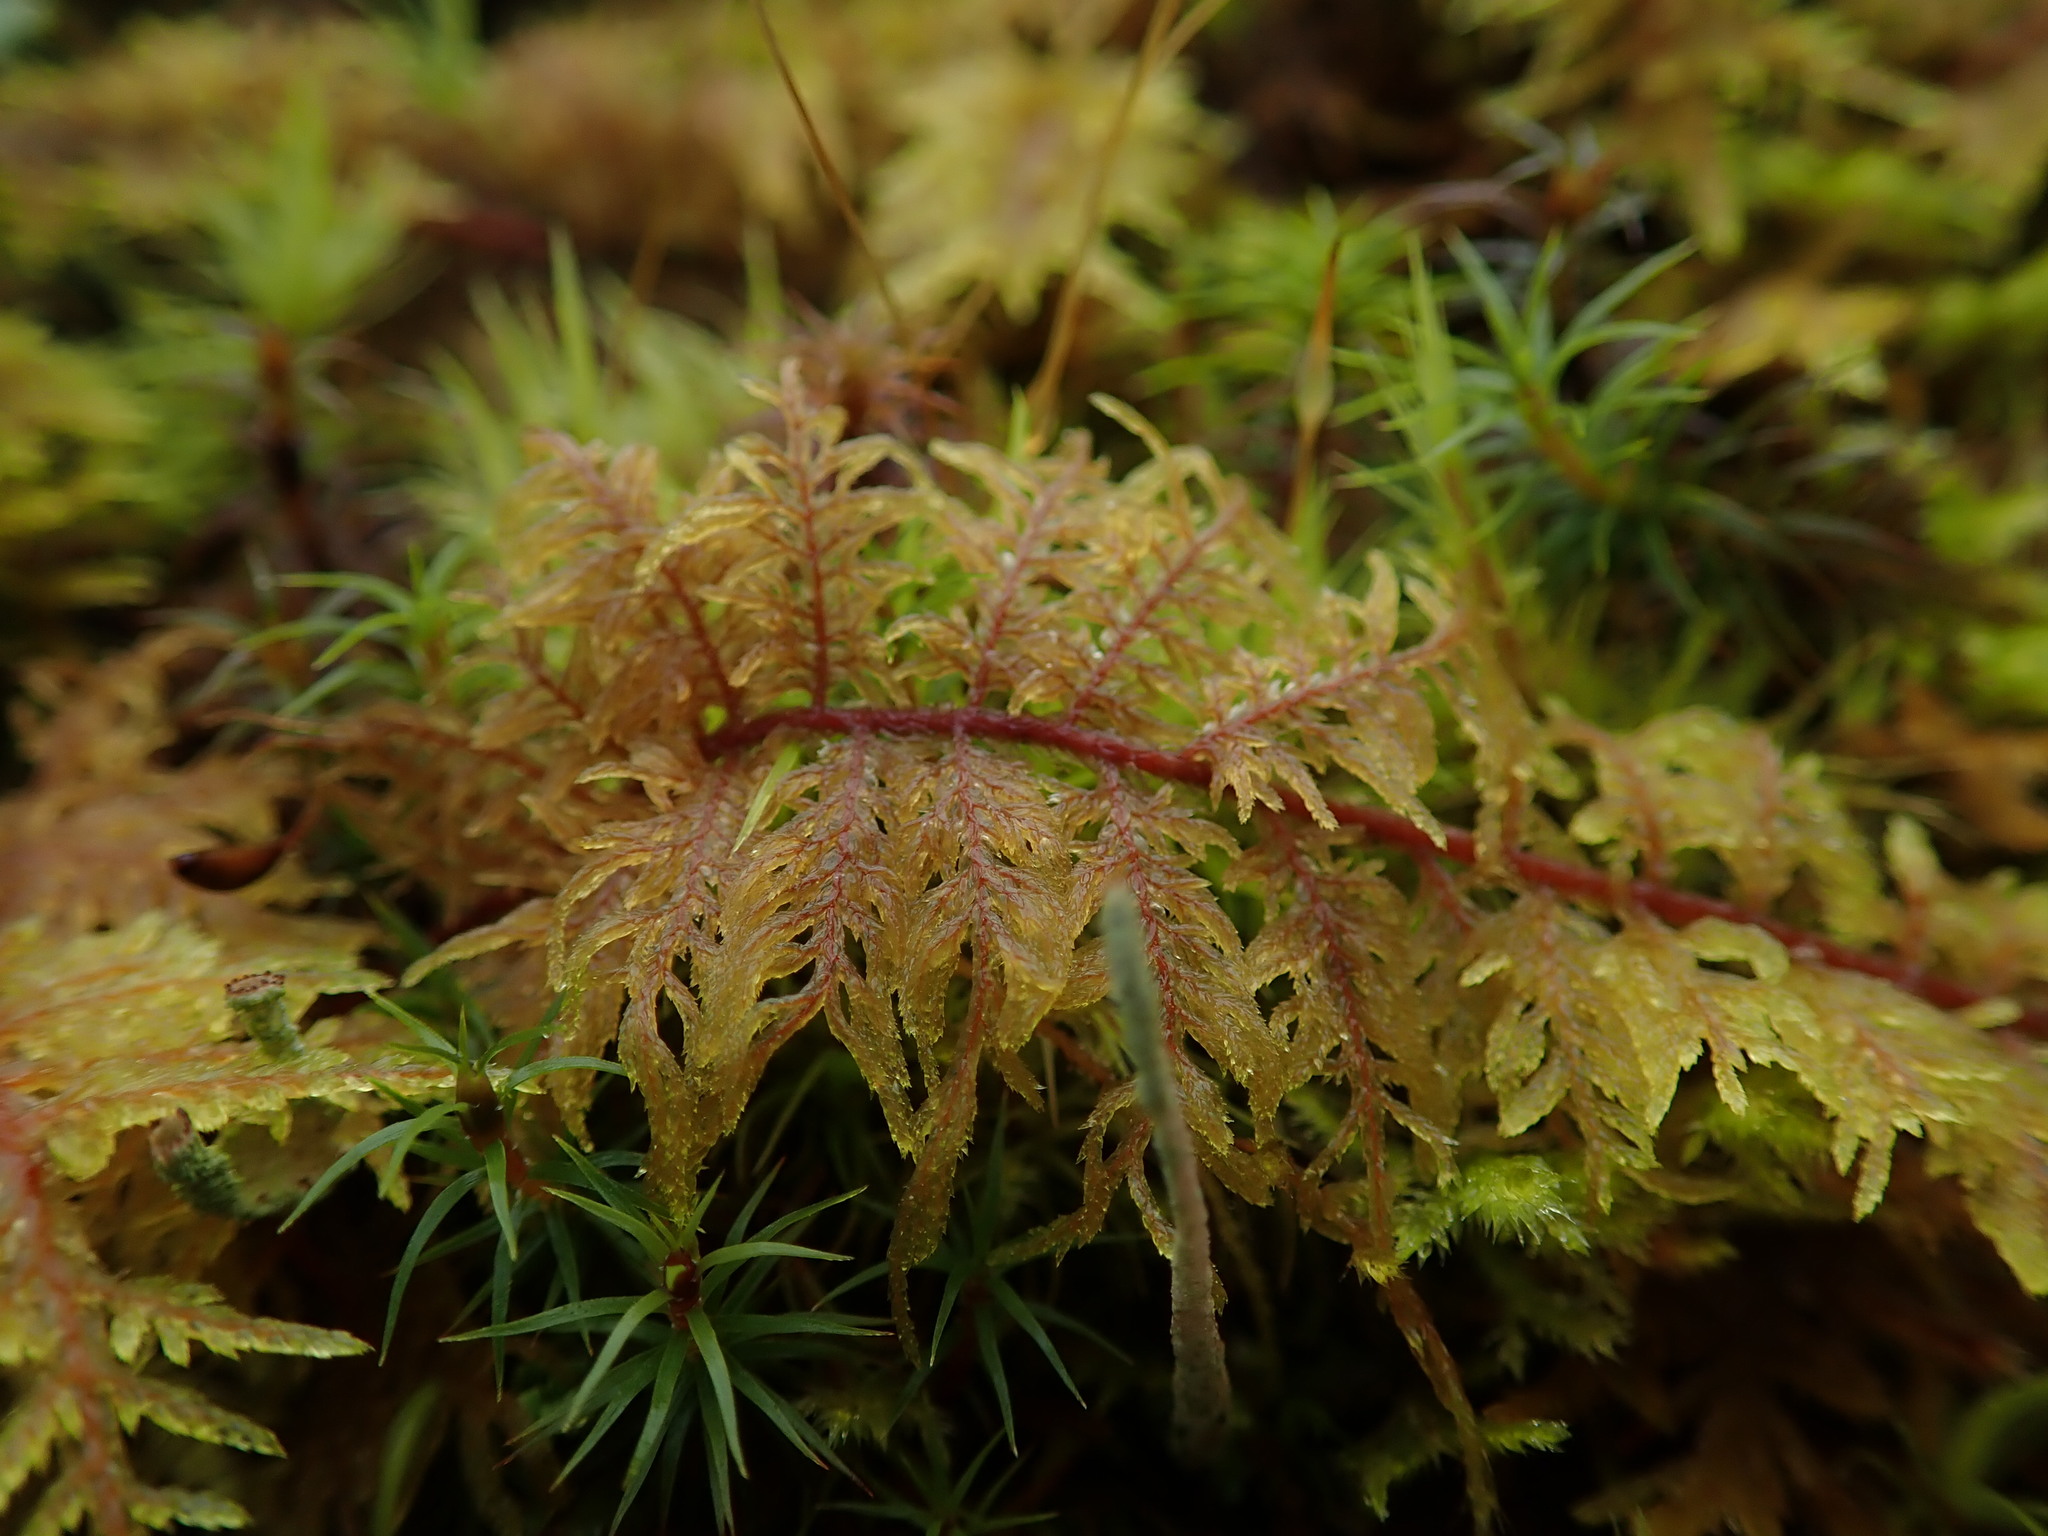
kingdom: Plantae
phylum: Bryophyta
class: Bryopsida
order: Hypnales
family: Hylocomiaceae
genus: Hylocomium
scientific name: Hylocomium splendens
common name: Stairstep moss
